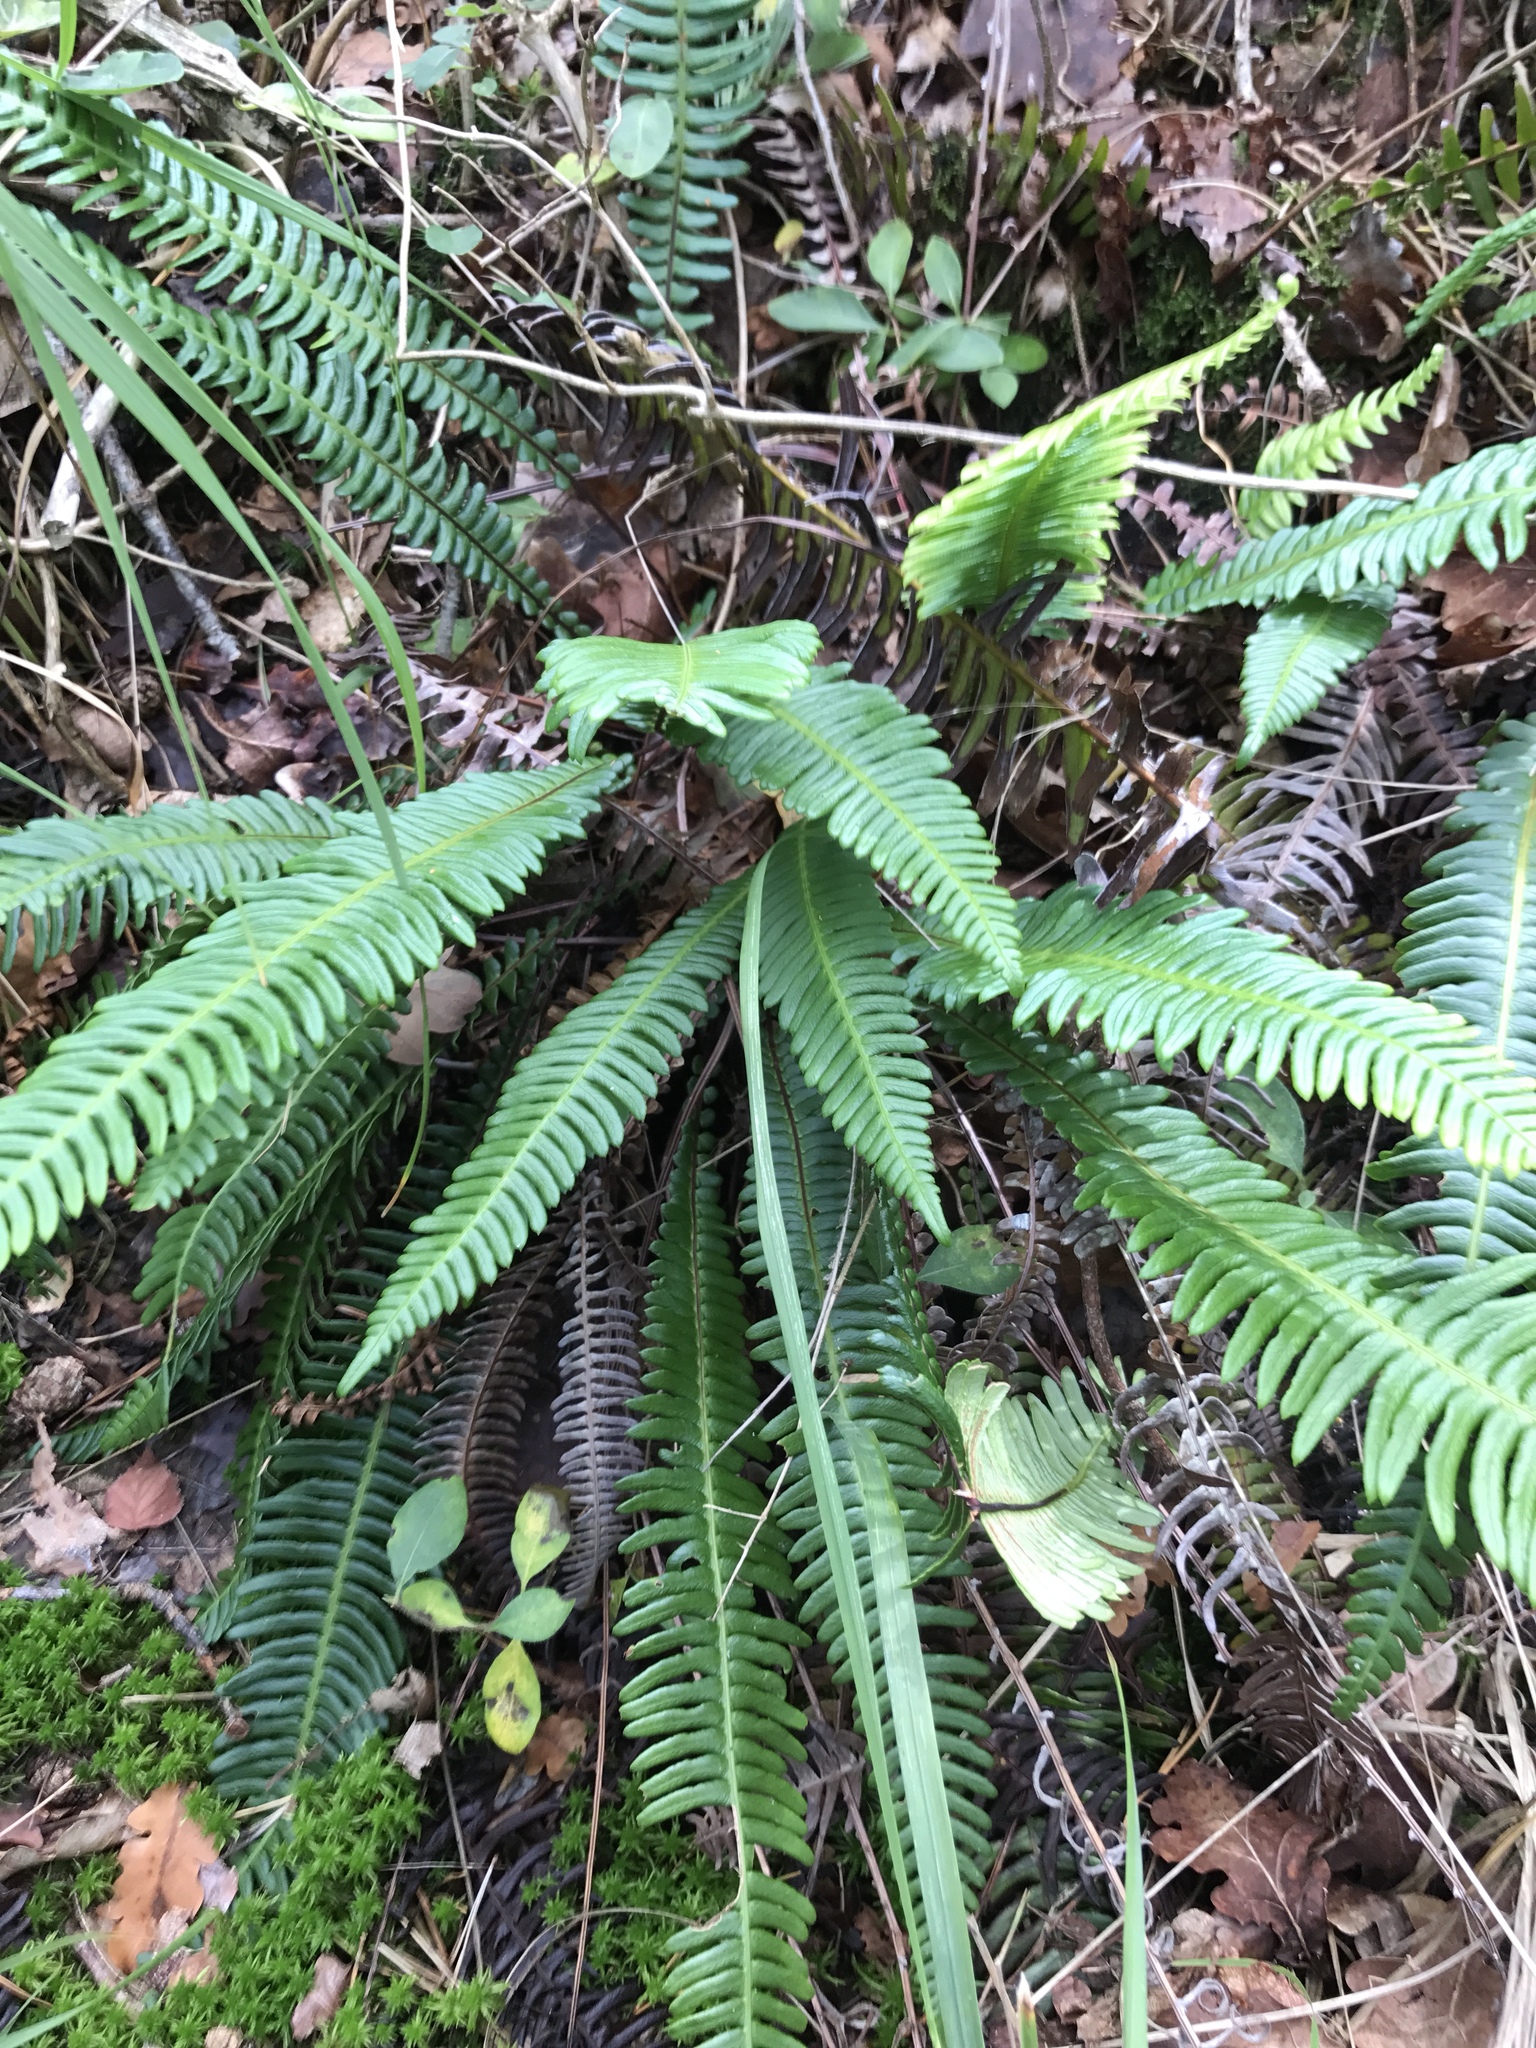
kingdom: Plantae
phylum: Tracheophyta
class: Polypodiopsida
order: Polypodiales
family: Blechnaceae
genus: Struthiopteris
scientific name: Struthiopteris spicant
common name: Deer fern
